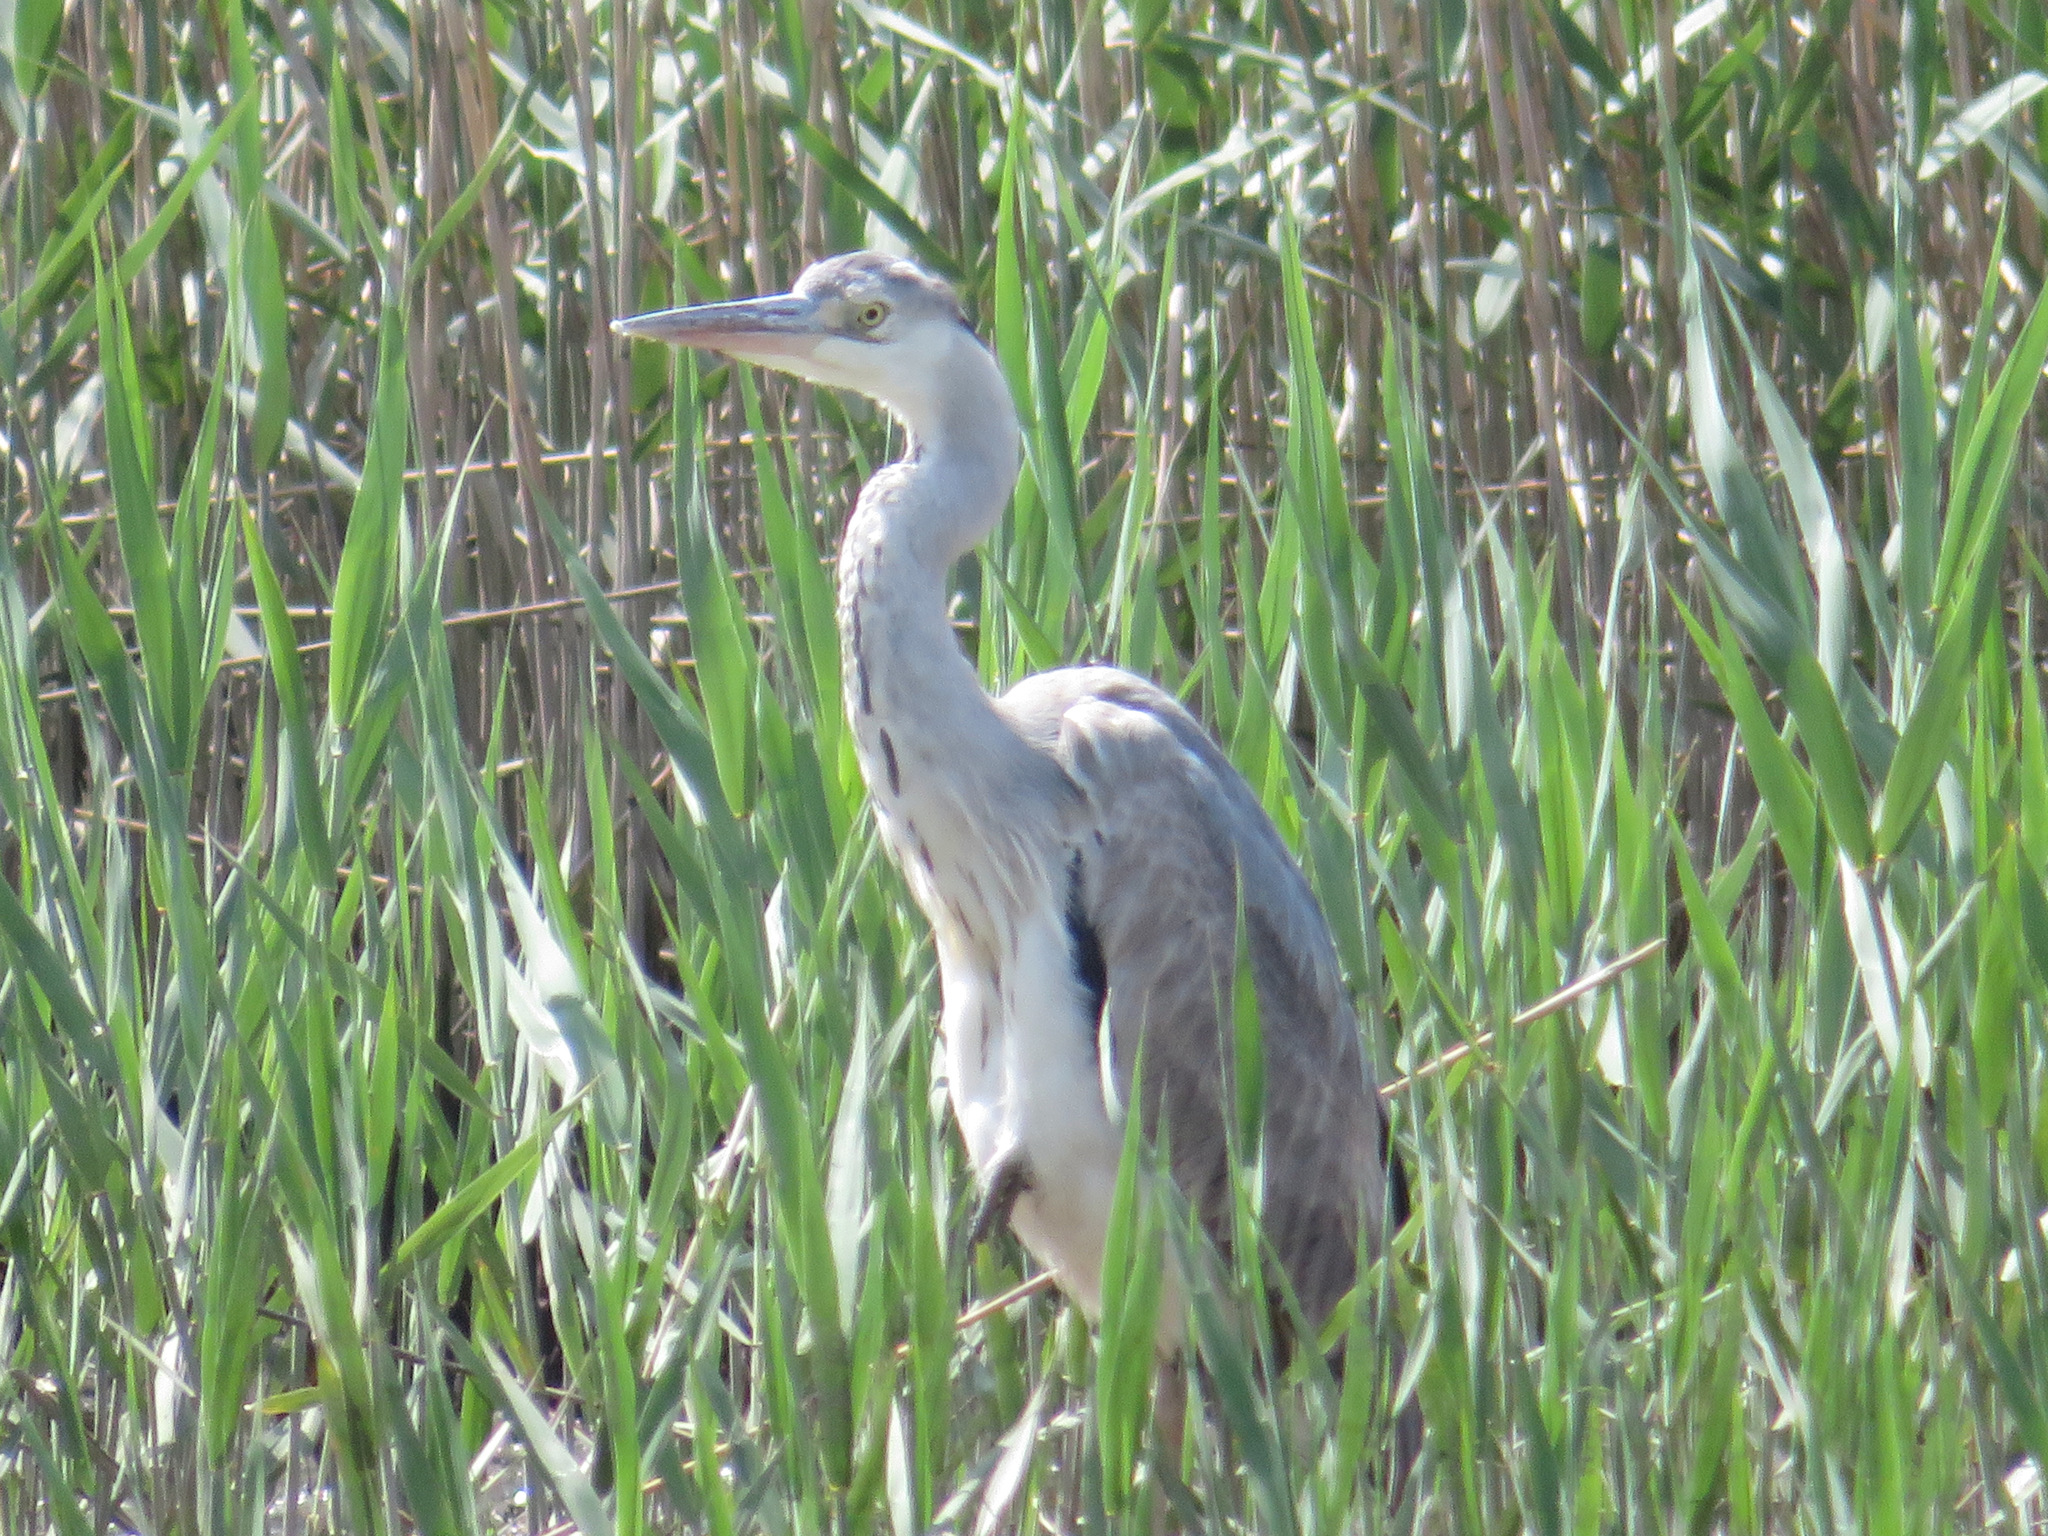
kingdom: Animalia
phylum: Chordata
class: Aves
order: Pelecaniformes
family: Ardeidae
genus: Ardea
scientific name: Ardea cinerea
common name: Grey heron
